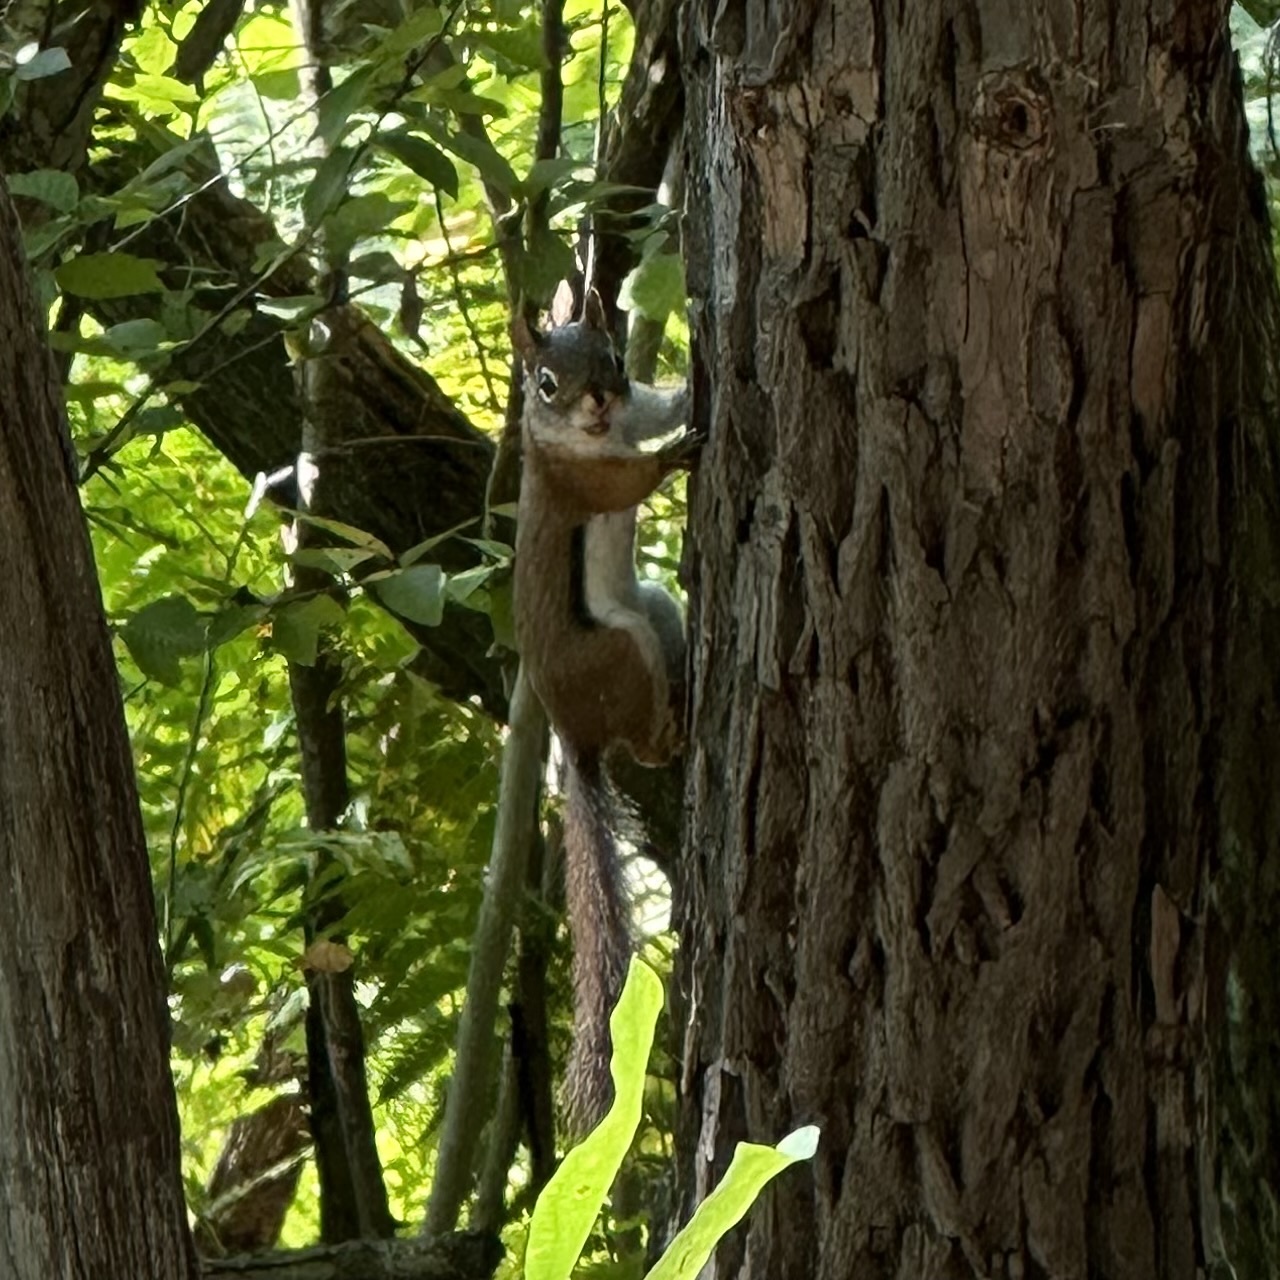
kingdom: Animalia
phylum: Chordata
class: Mammalia
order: Rodentia
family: Sciuridae
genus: Tamiasciurus
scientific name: Tamiasciurus hudsonicus
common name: Red squirrel
